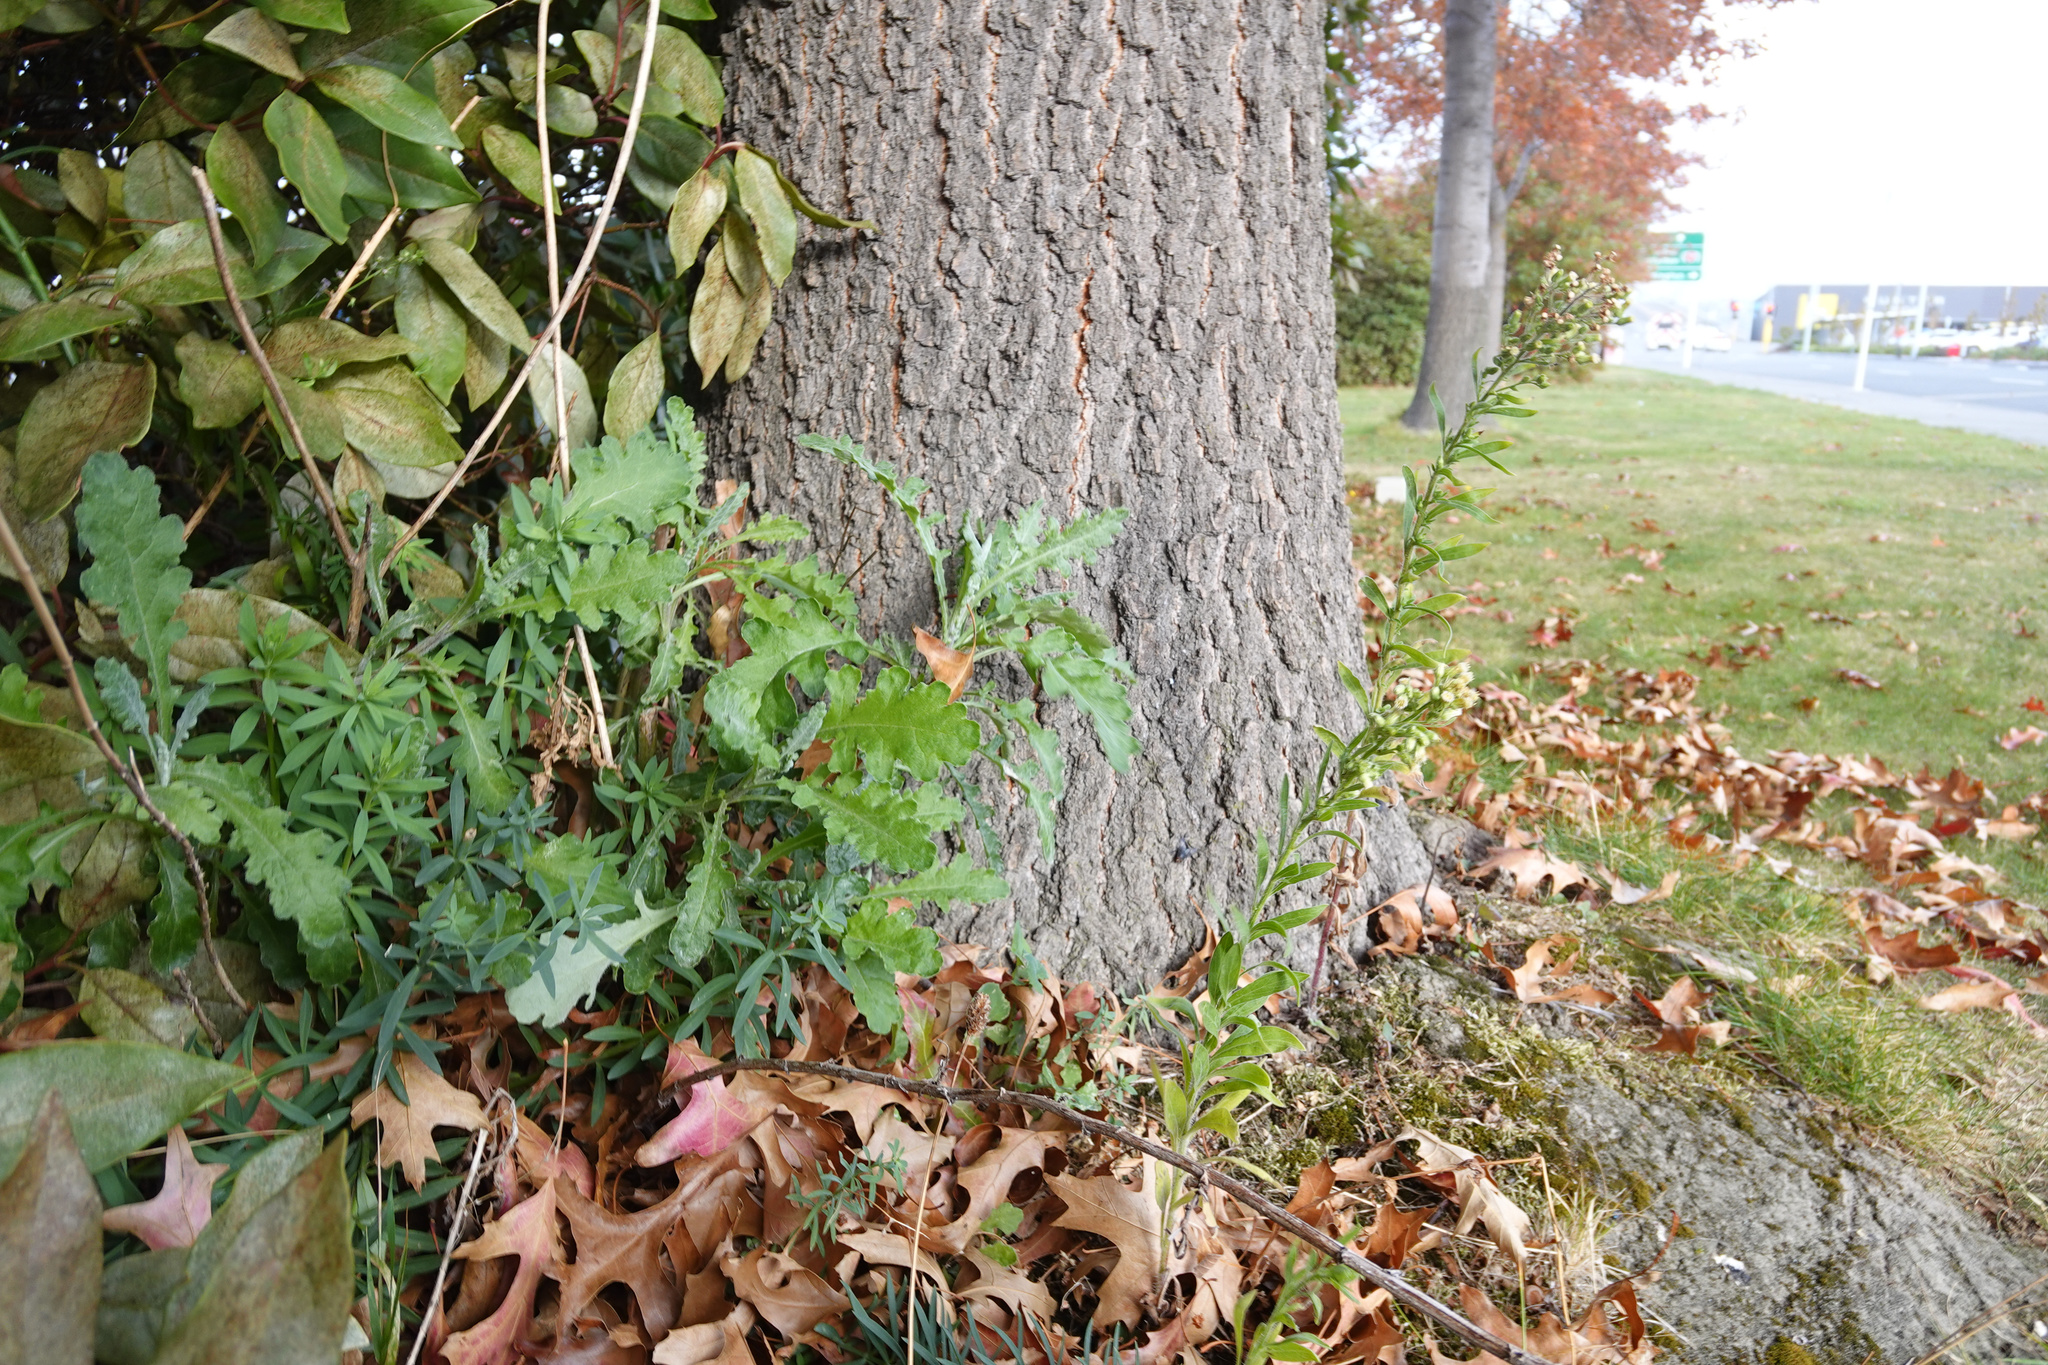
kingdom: Plantae
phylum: Tracheophyta
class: Magnoliopsida
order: Asterales
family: Asteraceae
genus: Senecio
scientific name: Senecio glomeratus
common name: Cutleaf burnweed
